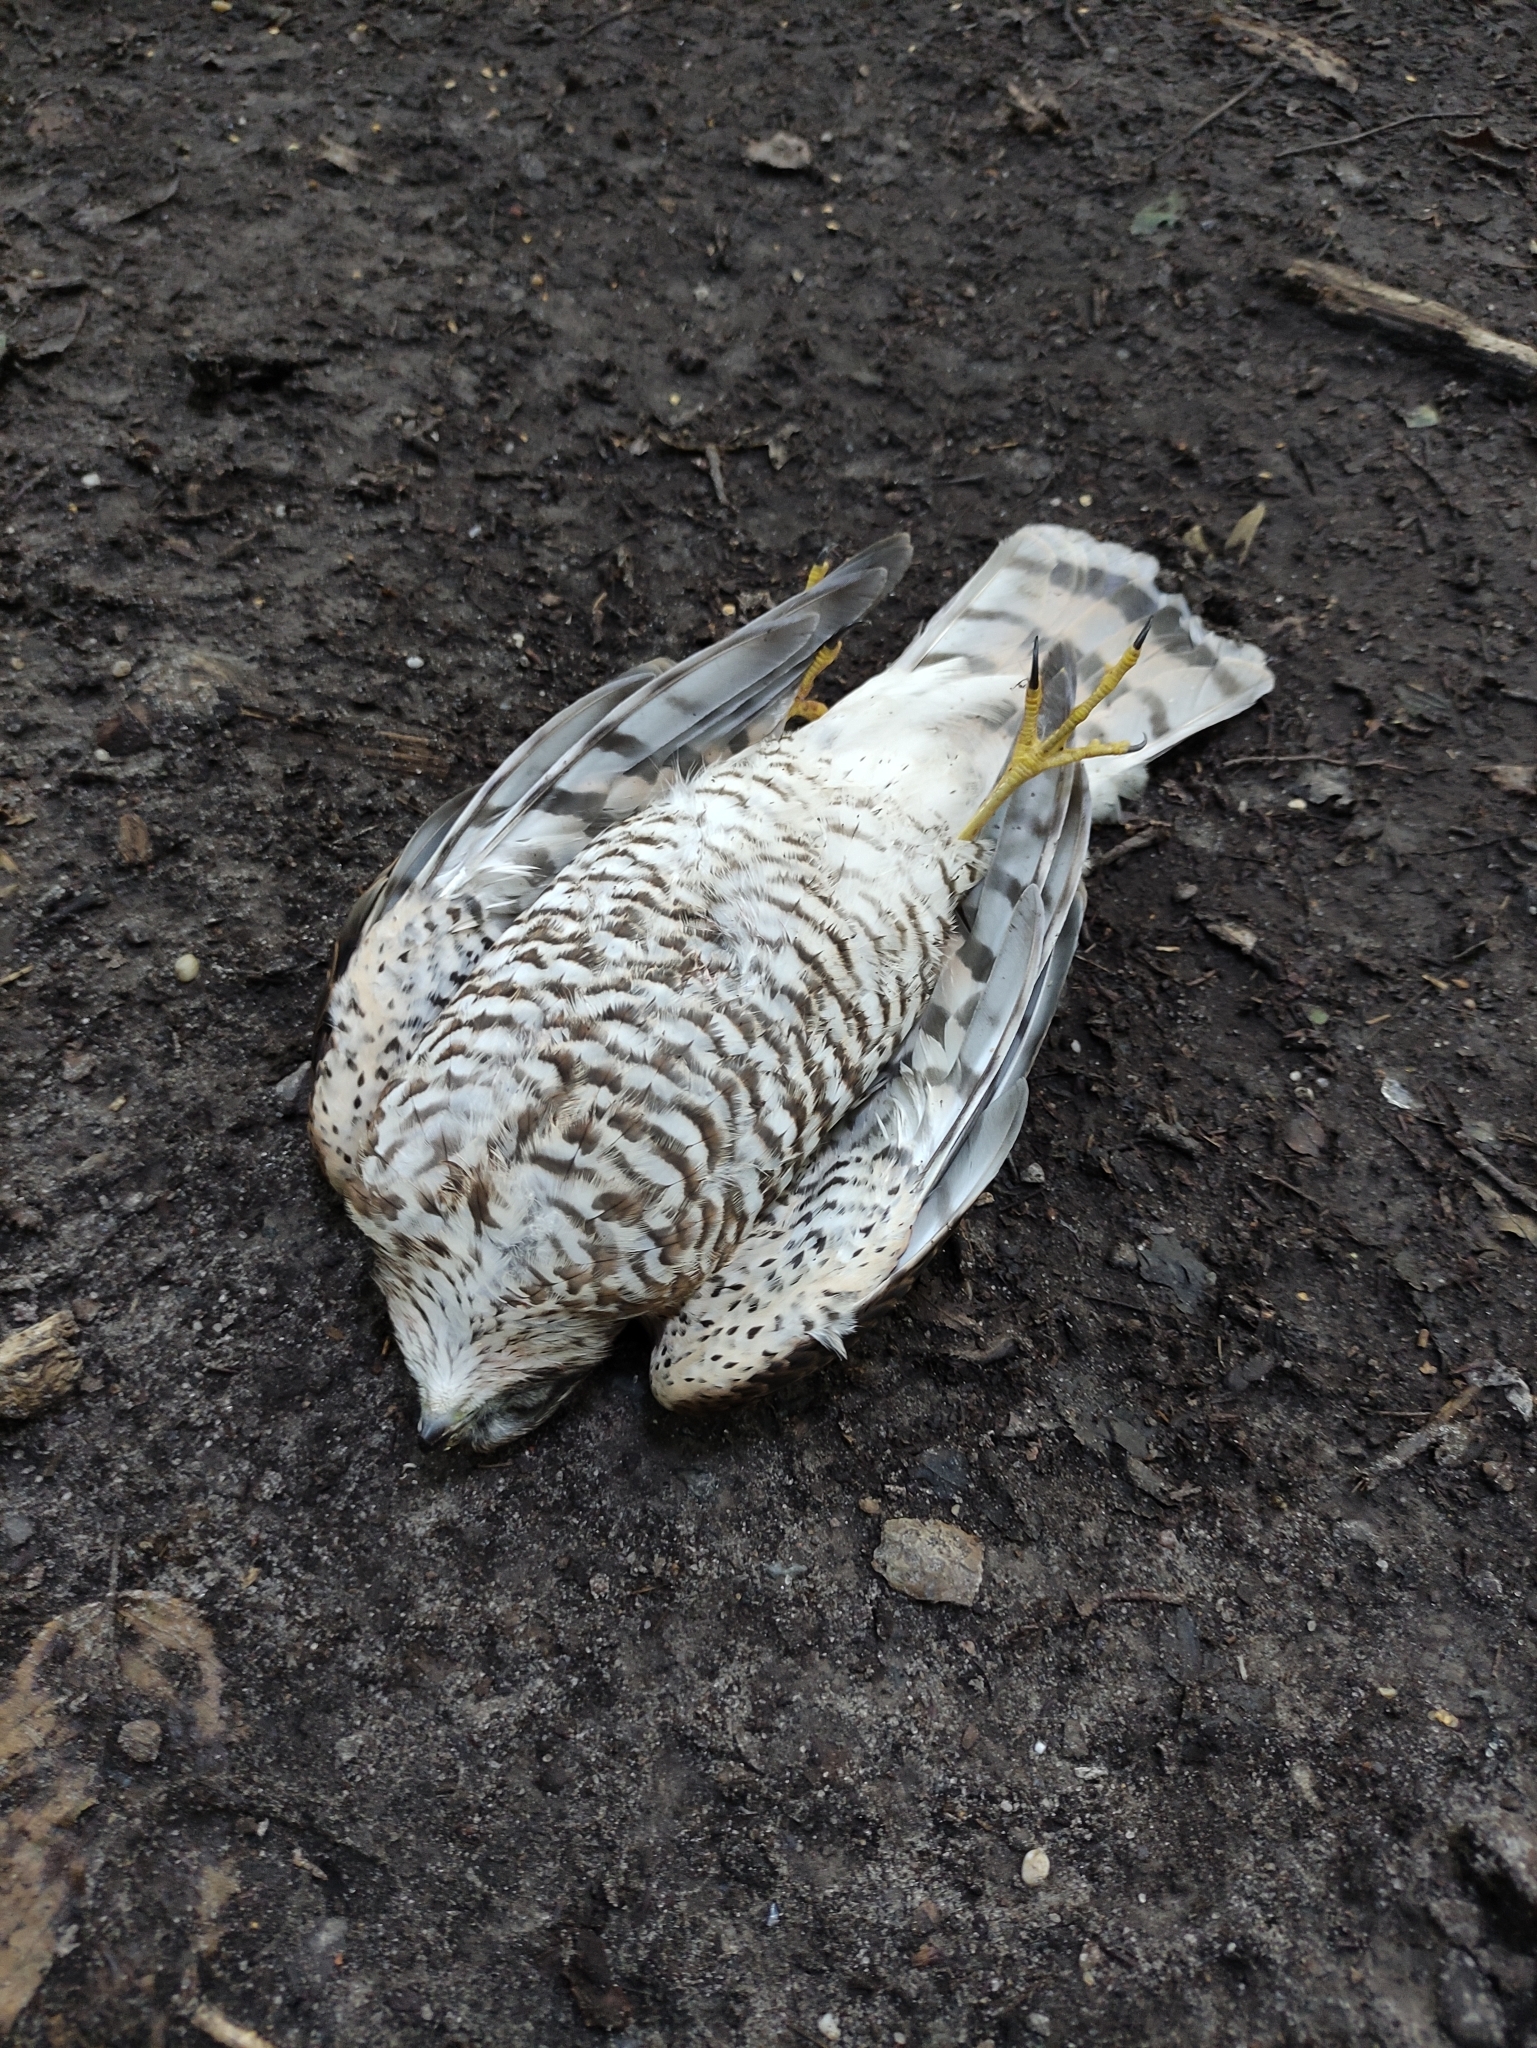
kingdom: Animalia
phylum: Chordata
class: Aves
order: Accipitriformes
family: Accipitridae
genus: Accipiter
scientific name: Accipiter nisus
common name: Eurasian sparrowhawk
